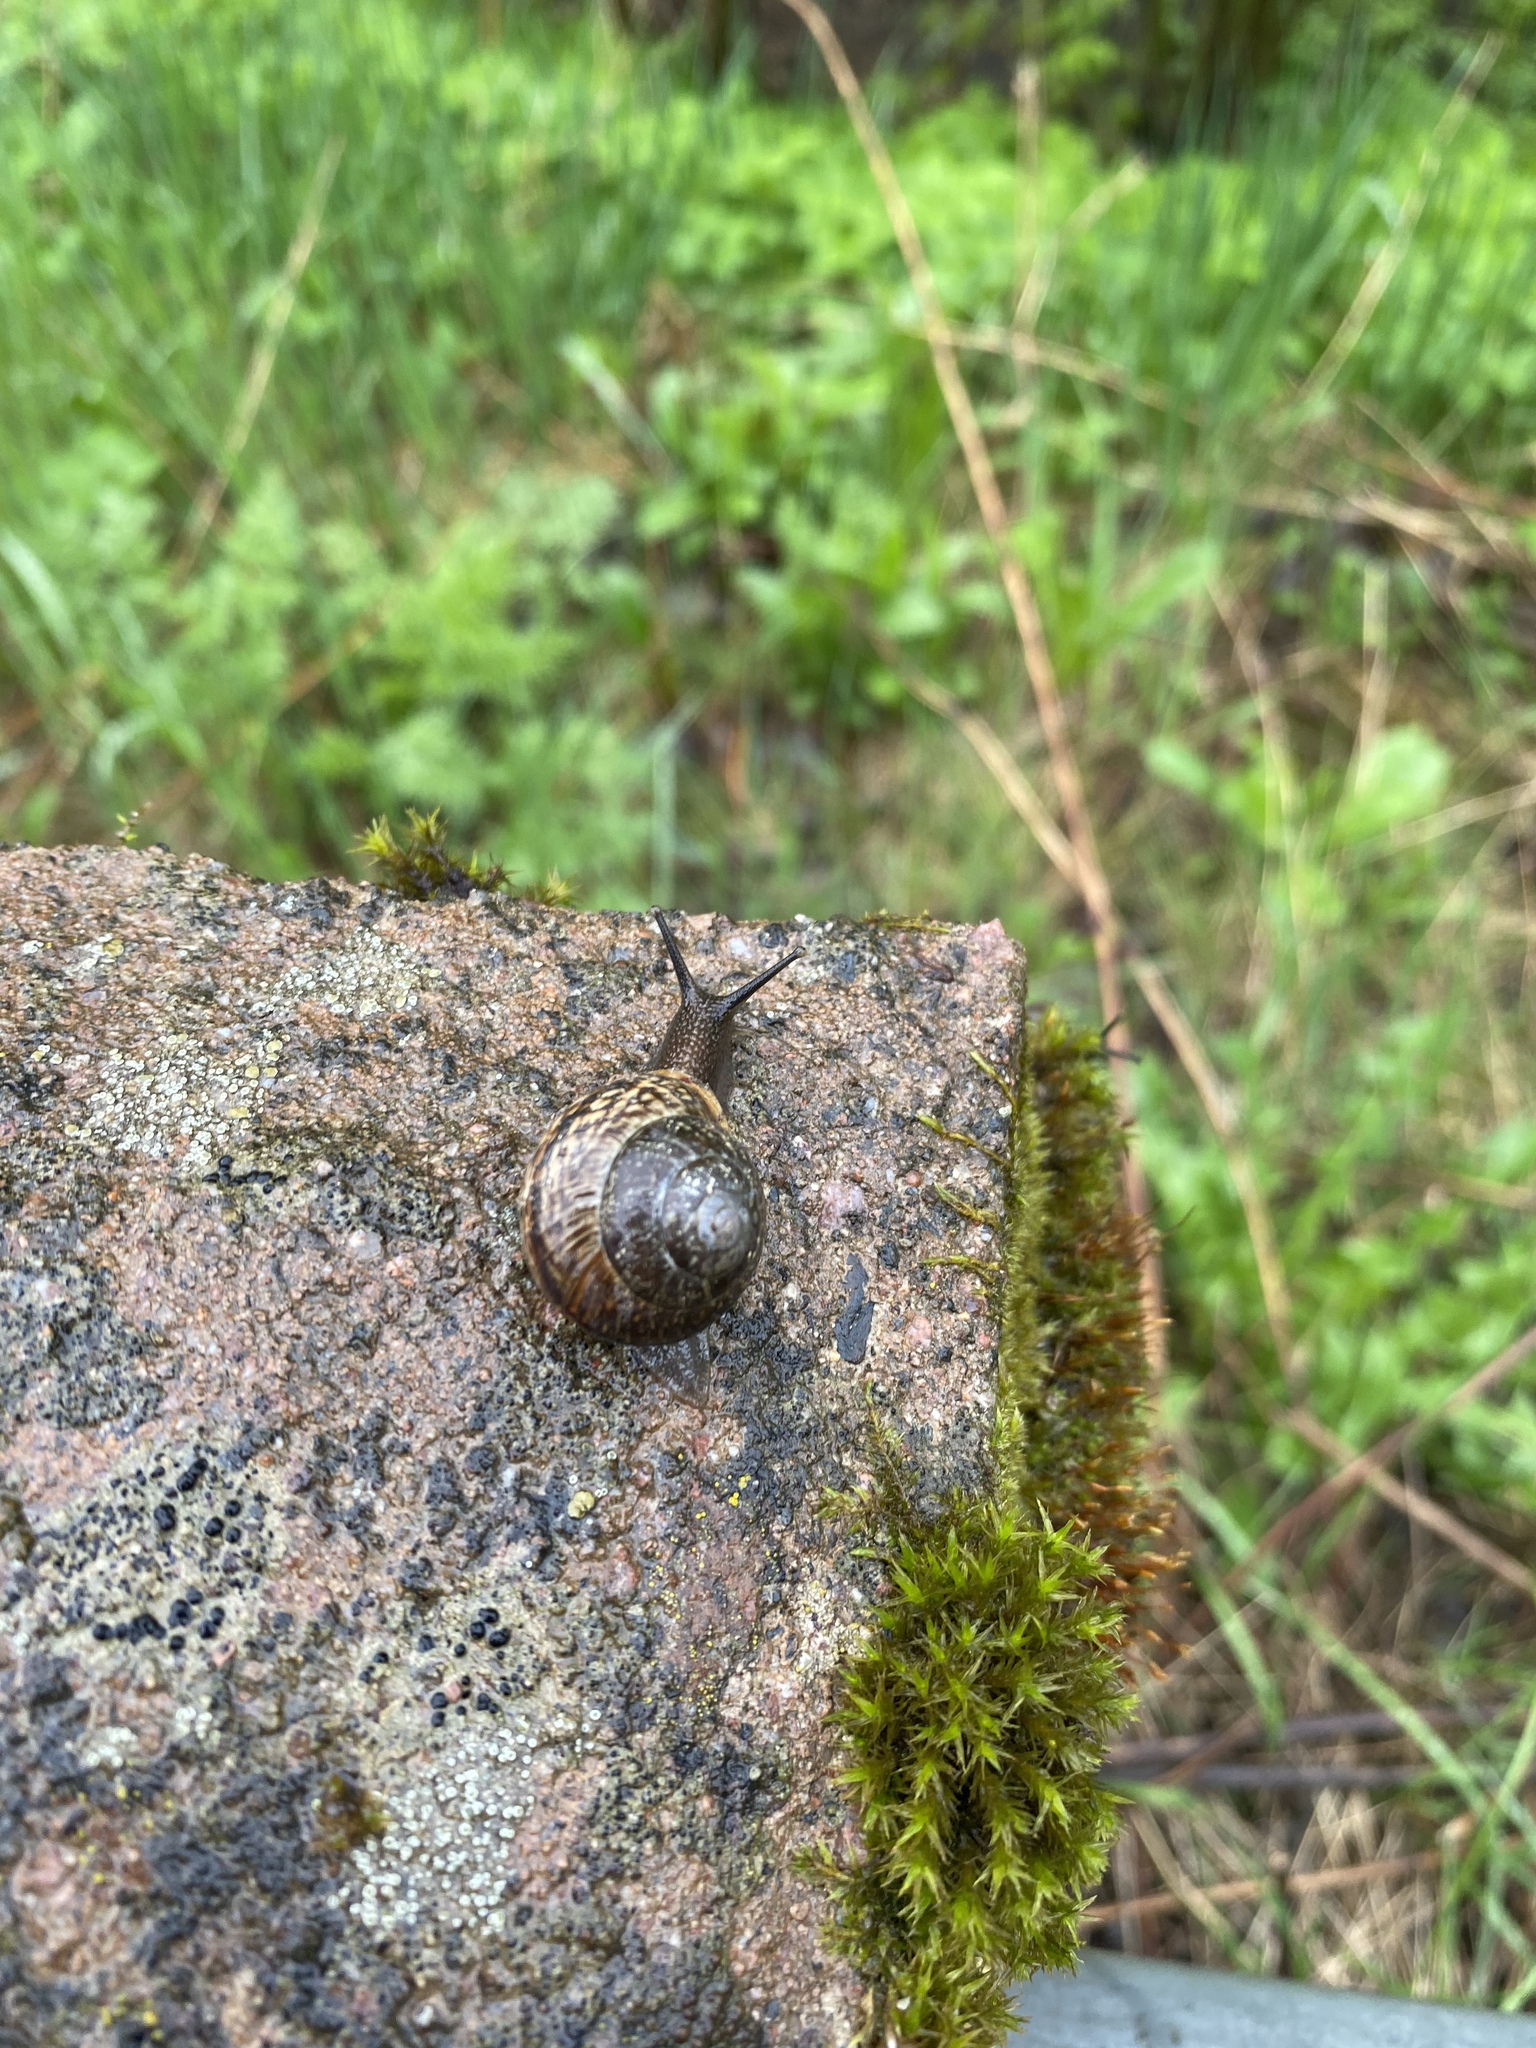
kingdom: Animalia
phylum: Mollusca
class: Gastropoda
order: Stylommatophora
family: Helicidae
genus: Arianta
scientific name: Arianta arbustorum
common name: Copse snail
